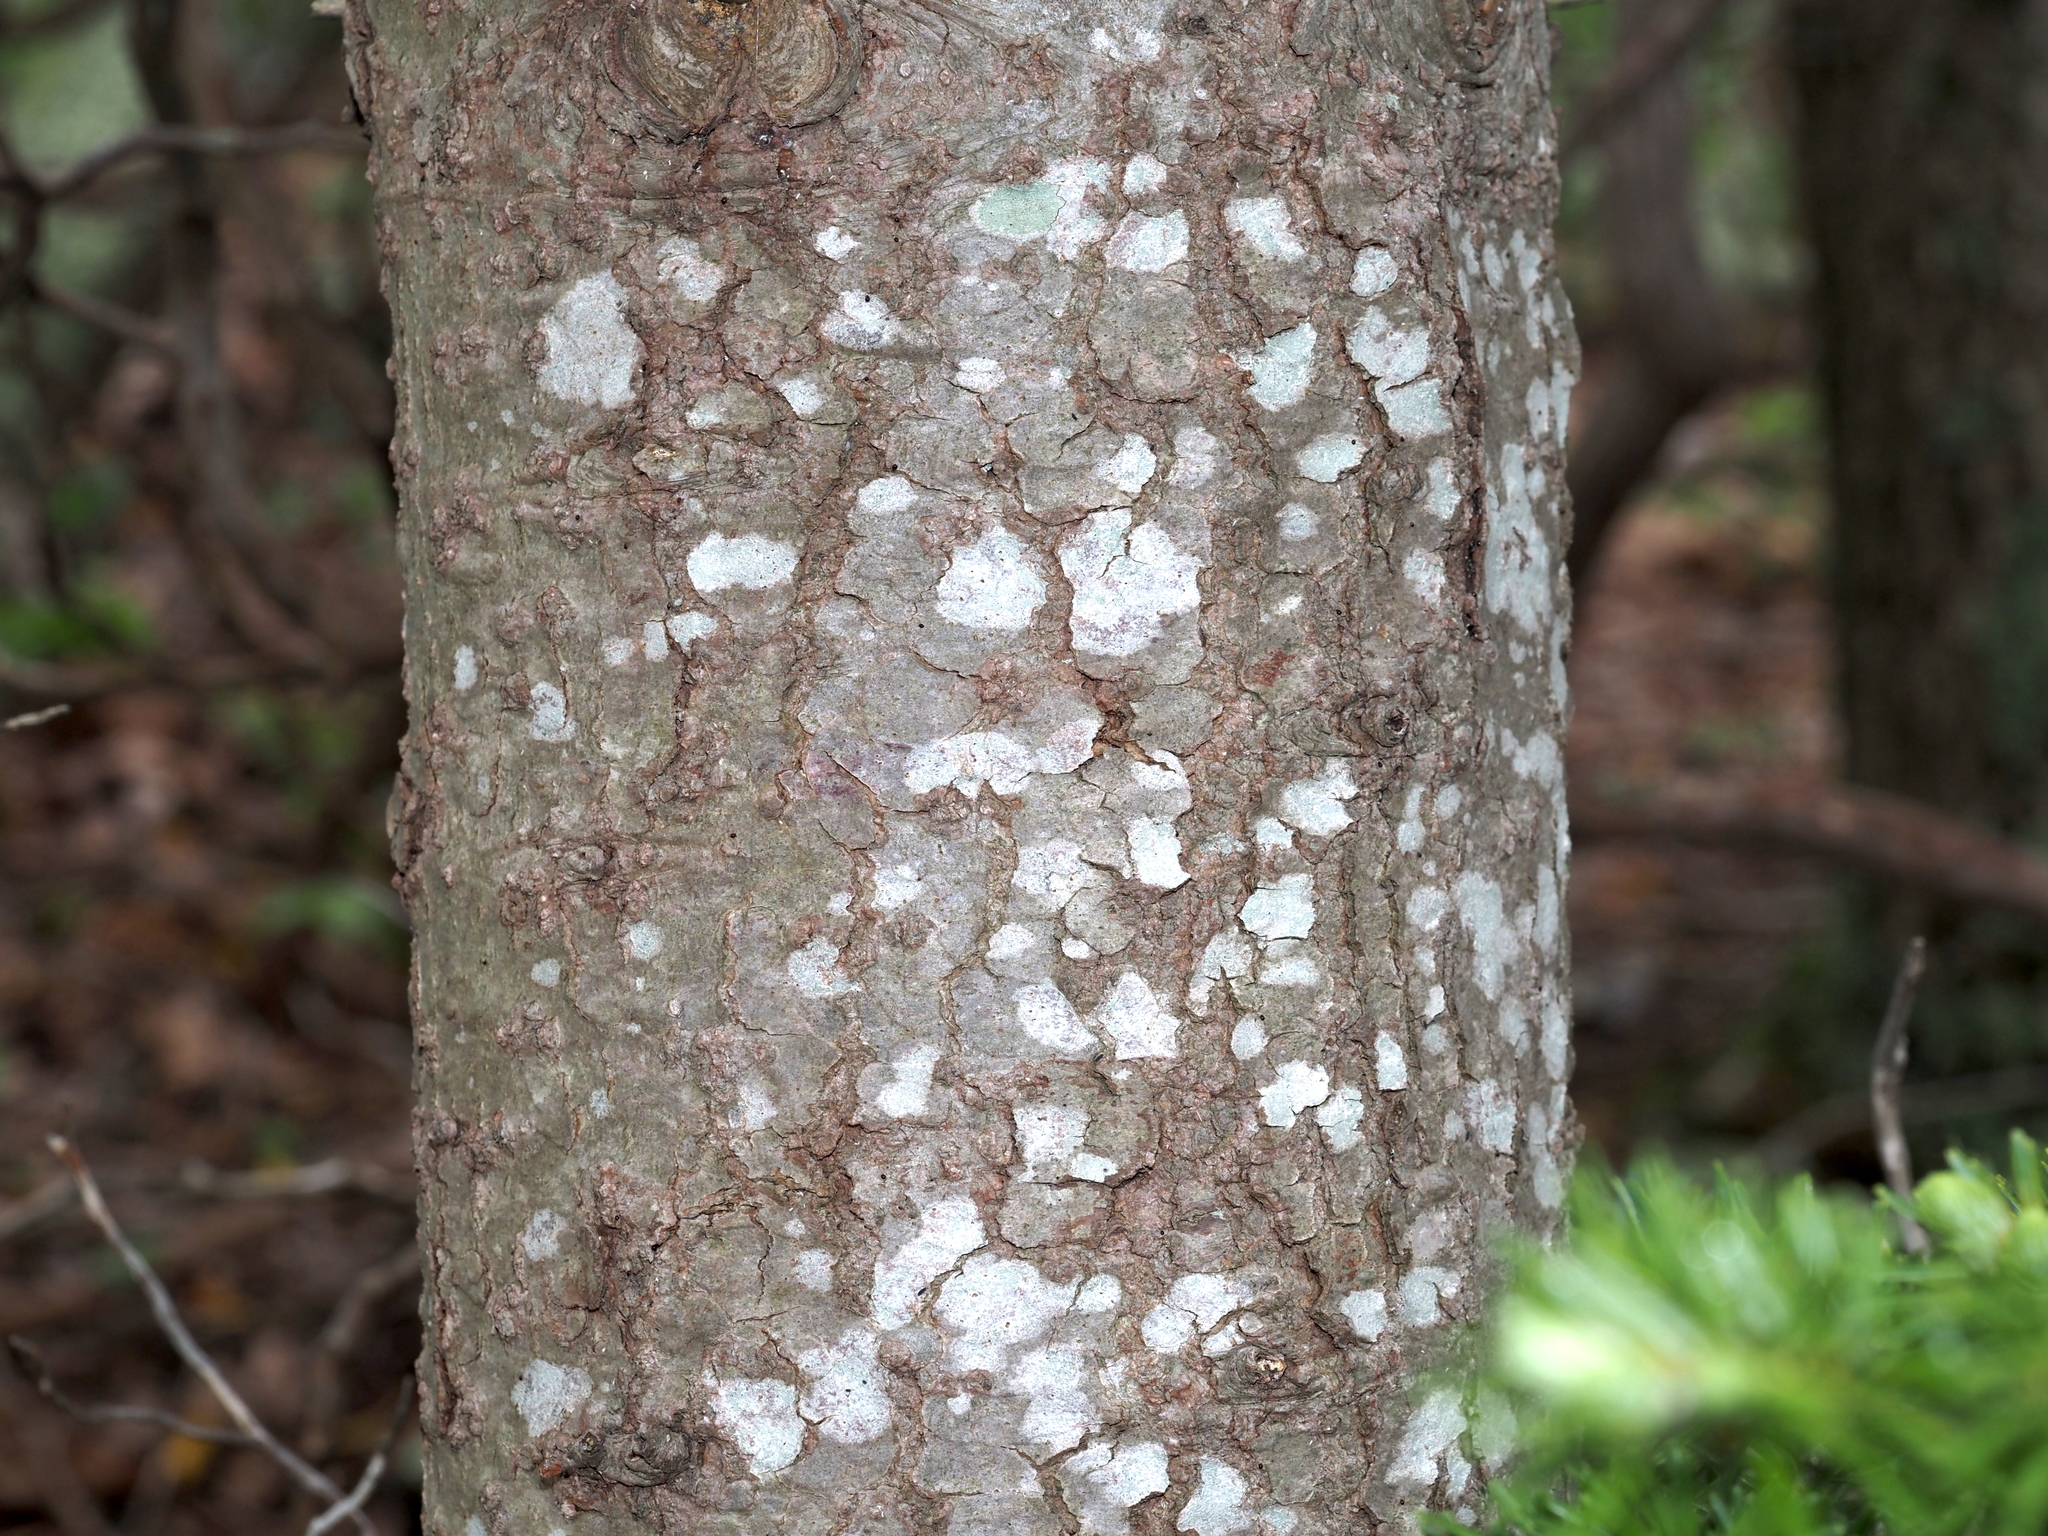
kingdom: Plantae
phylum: Tracheophyta
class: Pinopsida
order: Pinales
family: Pinaceae
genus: Abies
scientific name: Abies balsamea
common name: Balsam fir
